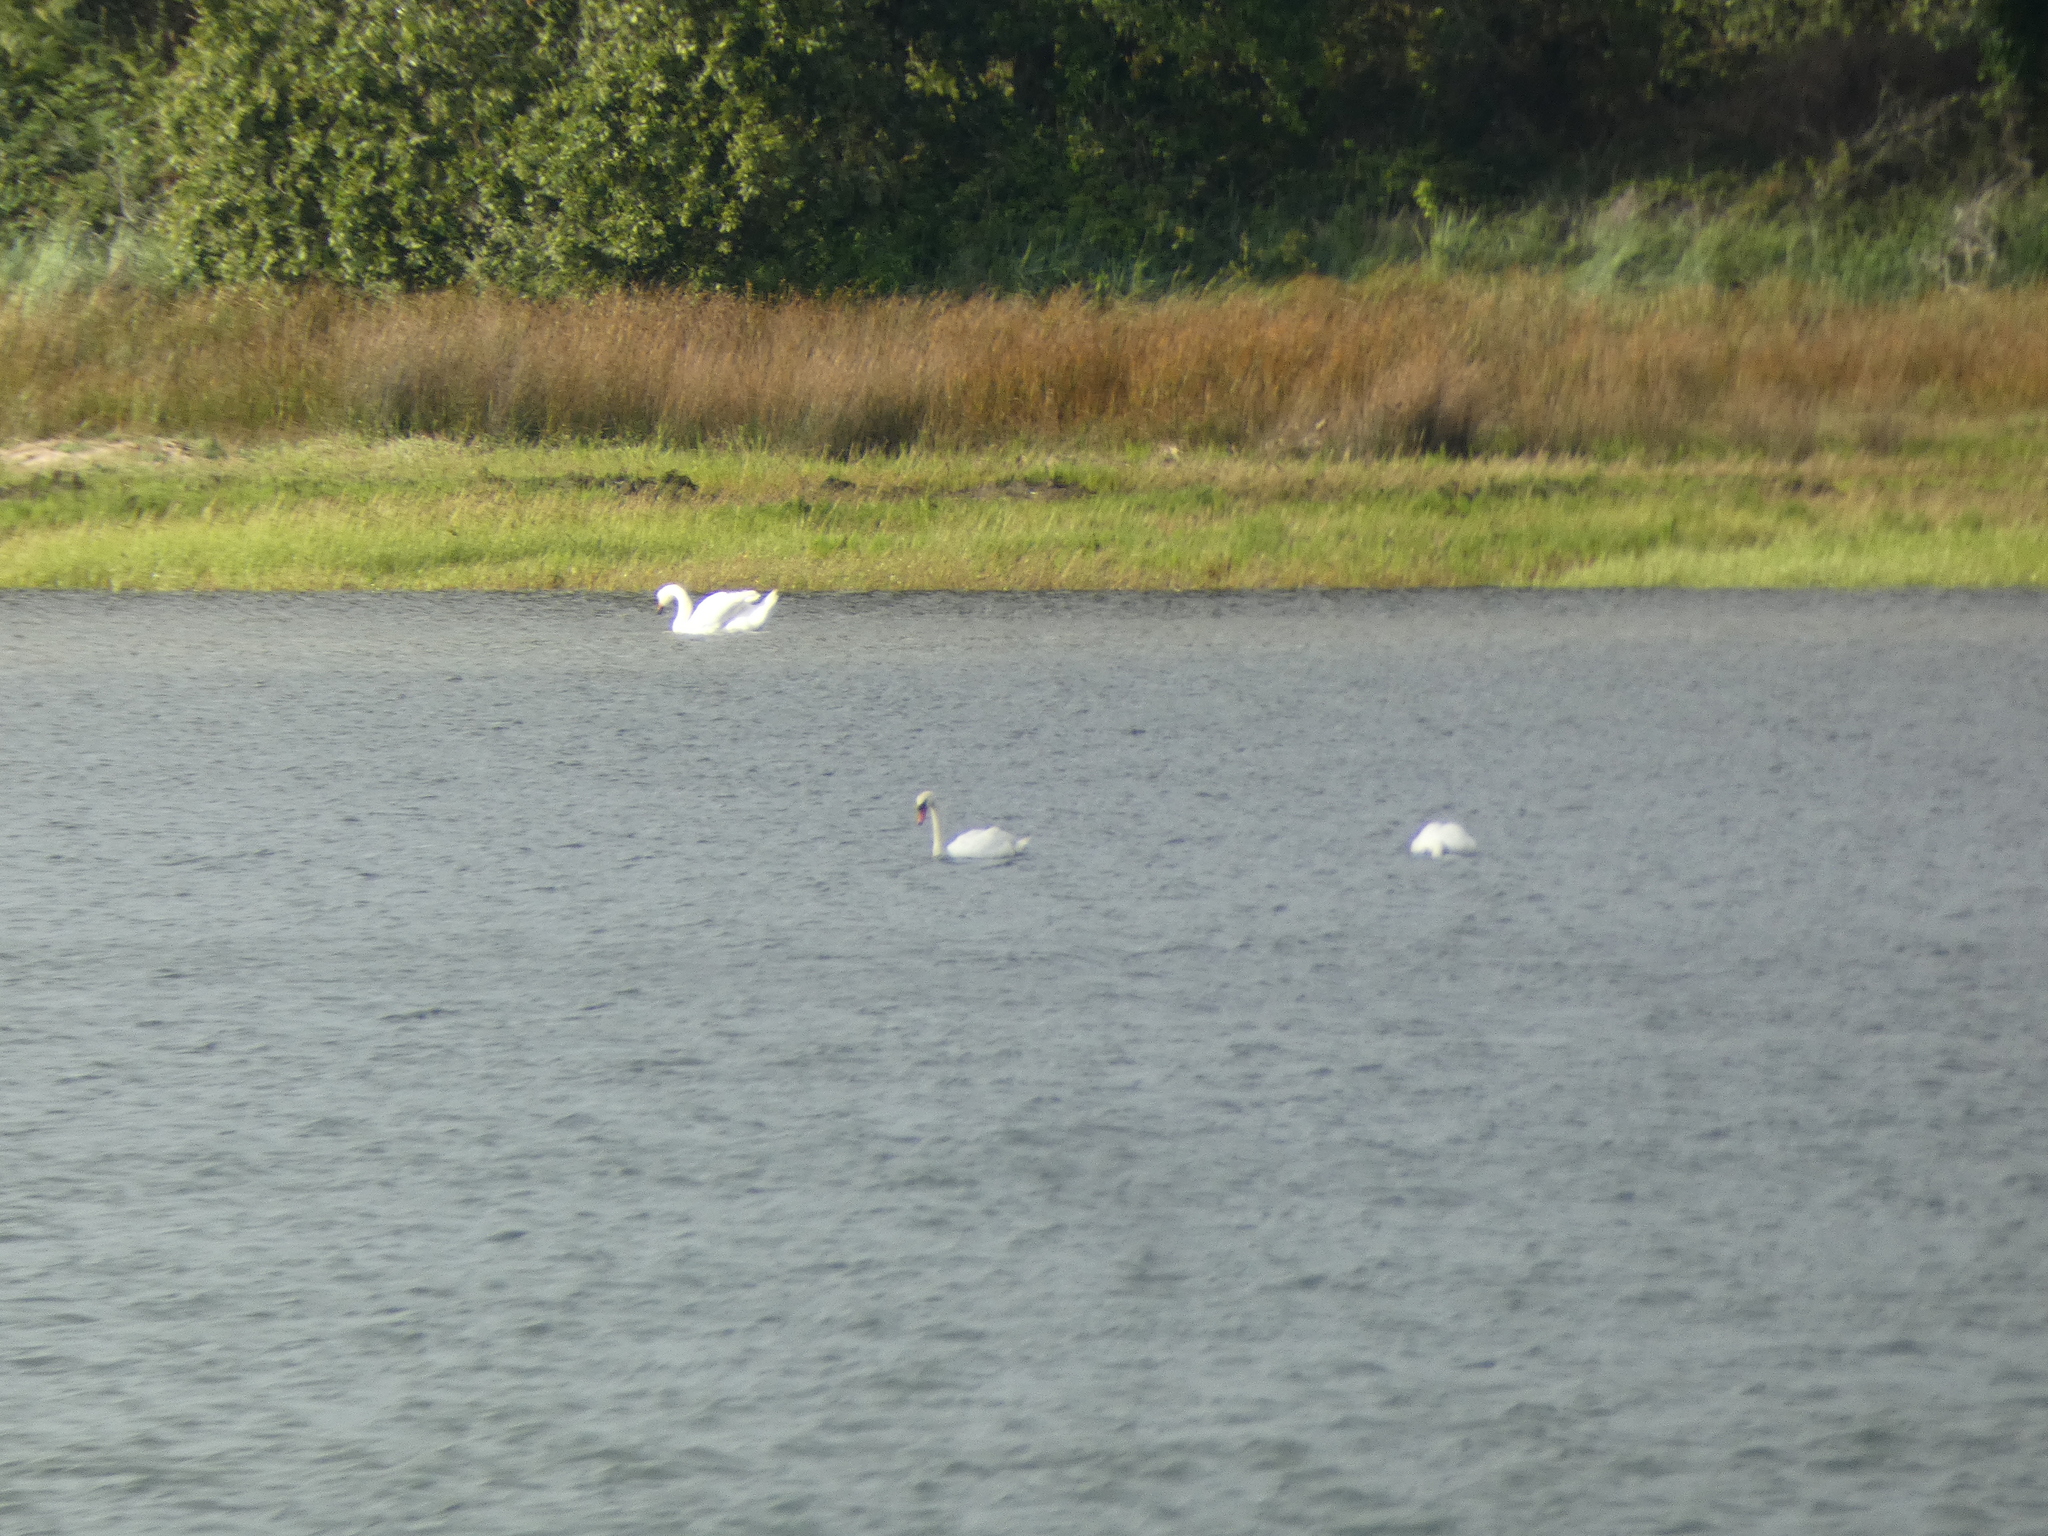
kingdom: Animalia
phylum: Chordata
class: Aves
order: Anseriformes
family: Anatidae
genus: Cygnus
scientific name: Cygnus olor
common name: Mute swan
